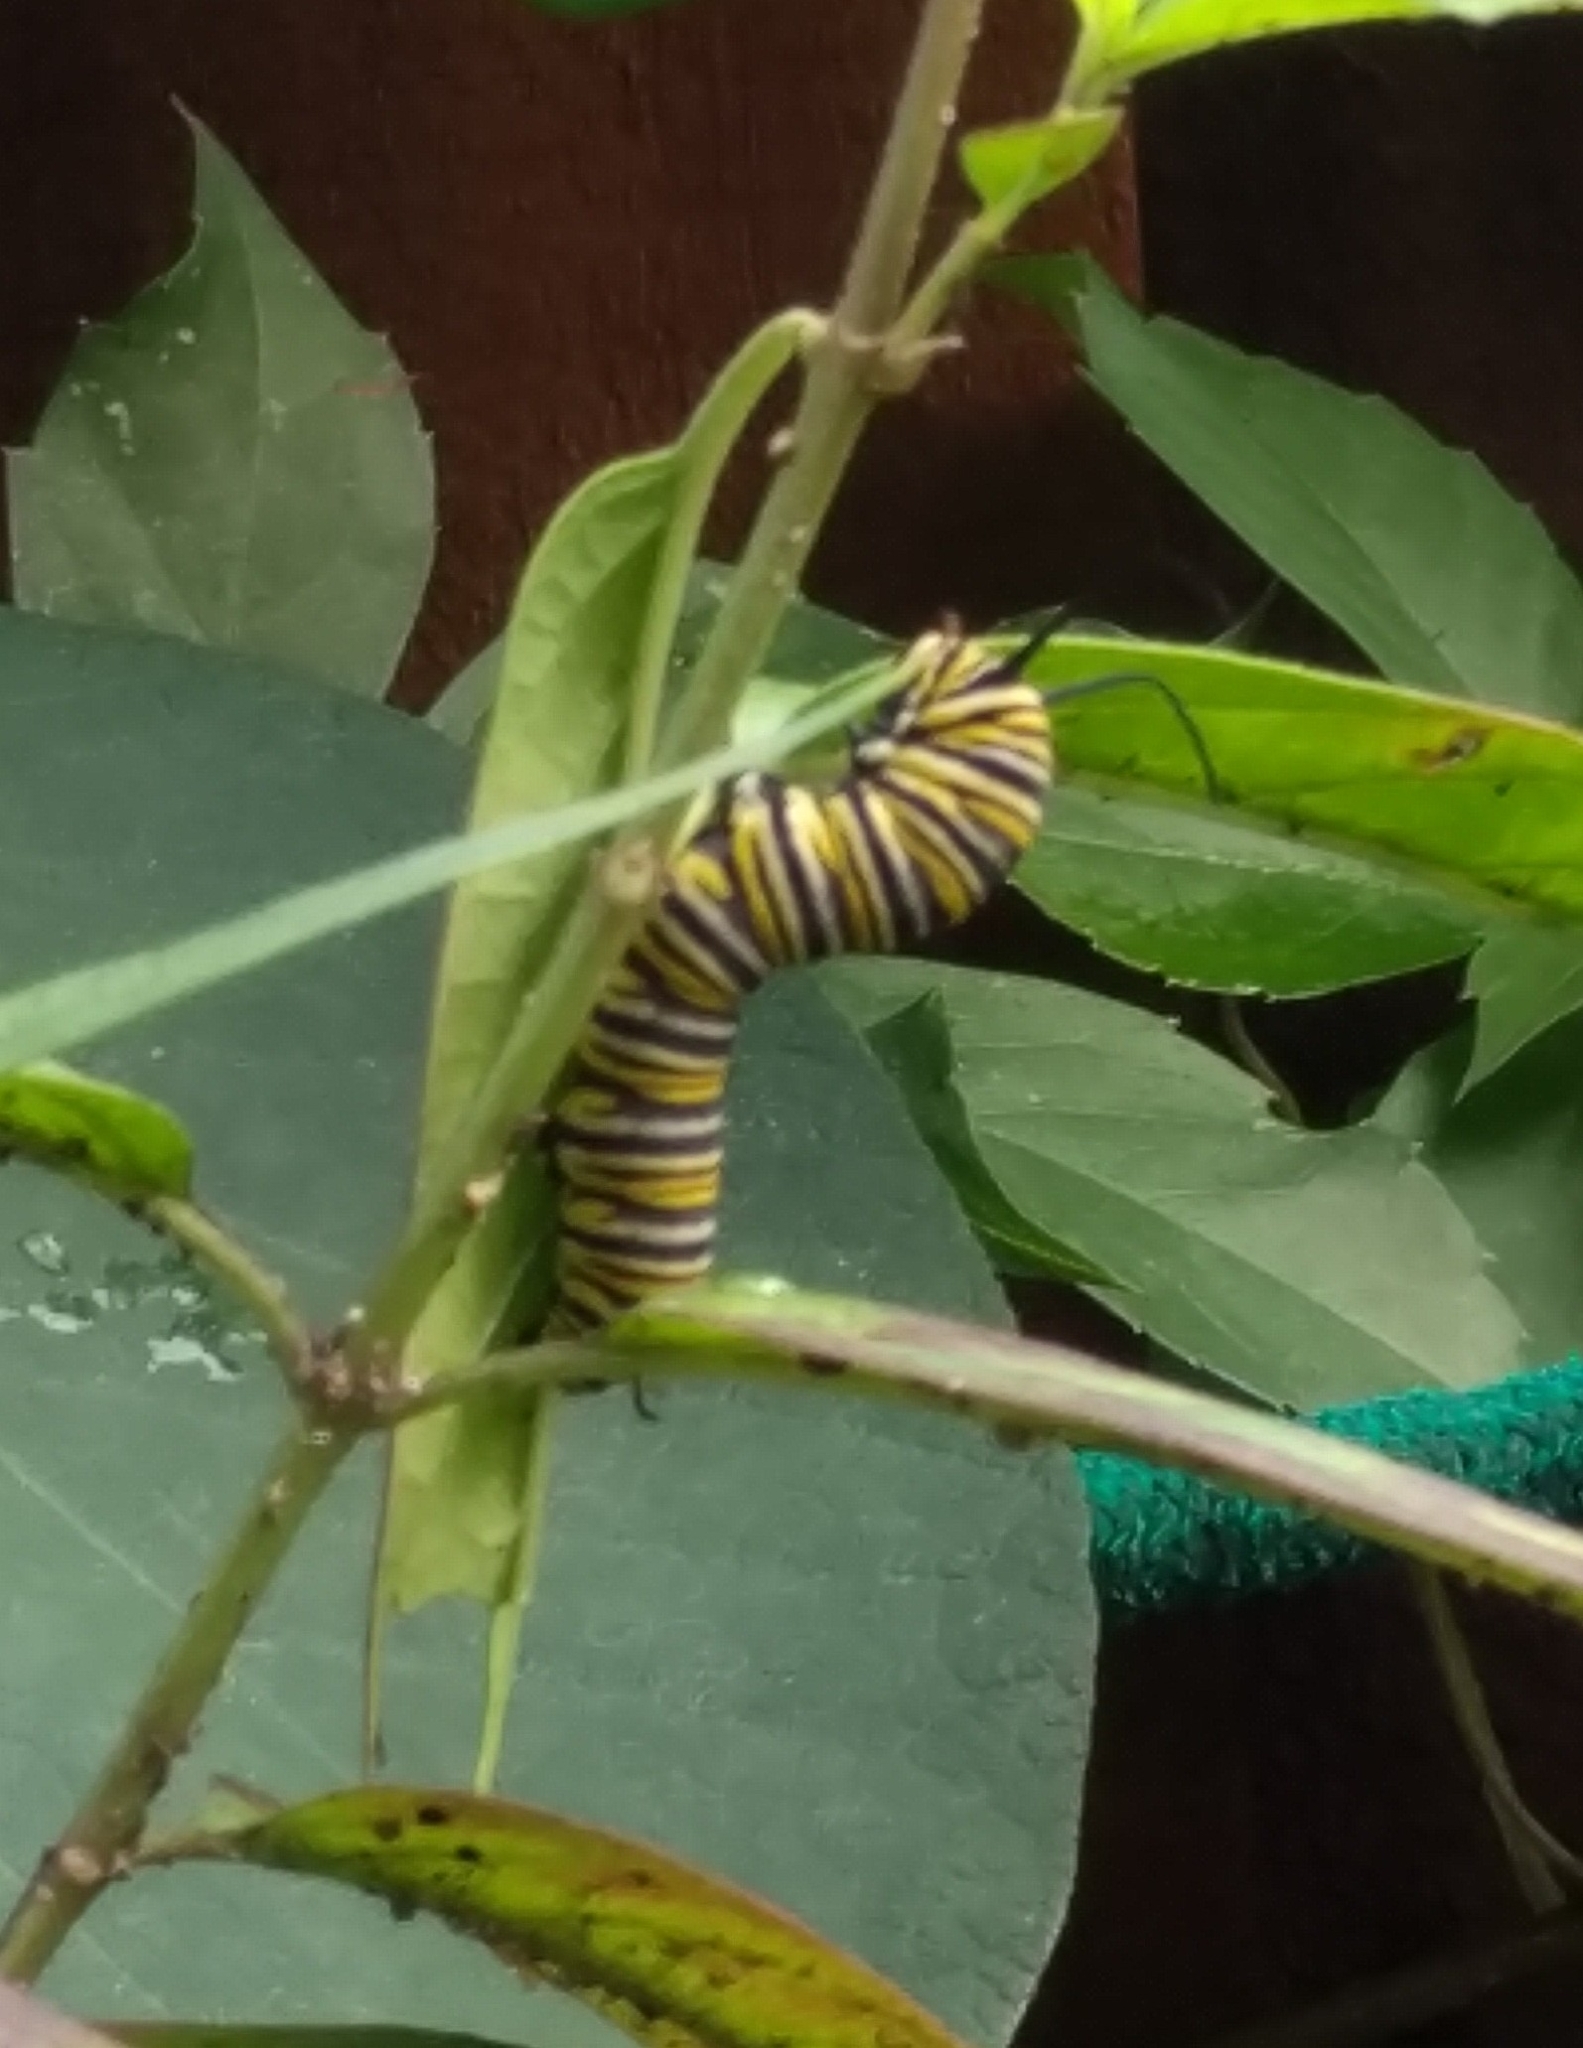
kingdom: Animalia
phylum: Arthropoda
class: Insecta
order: Lepidoptera
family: Nymphalidae
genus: Danaus
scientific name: Danaus plexippus
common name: Monarch
